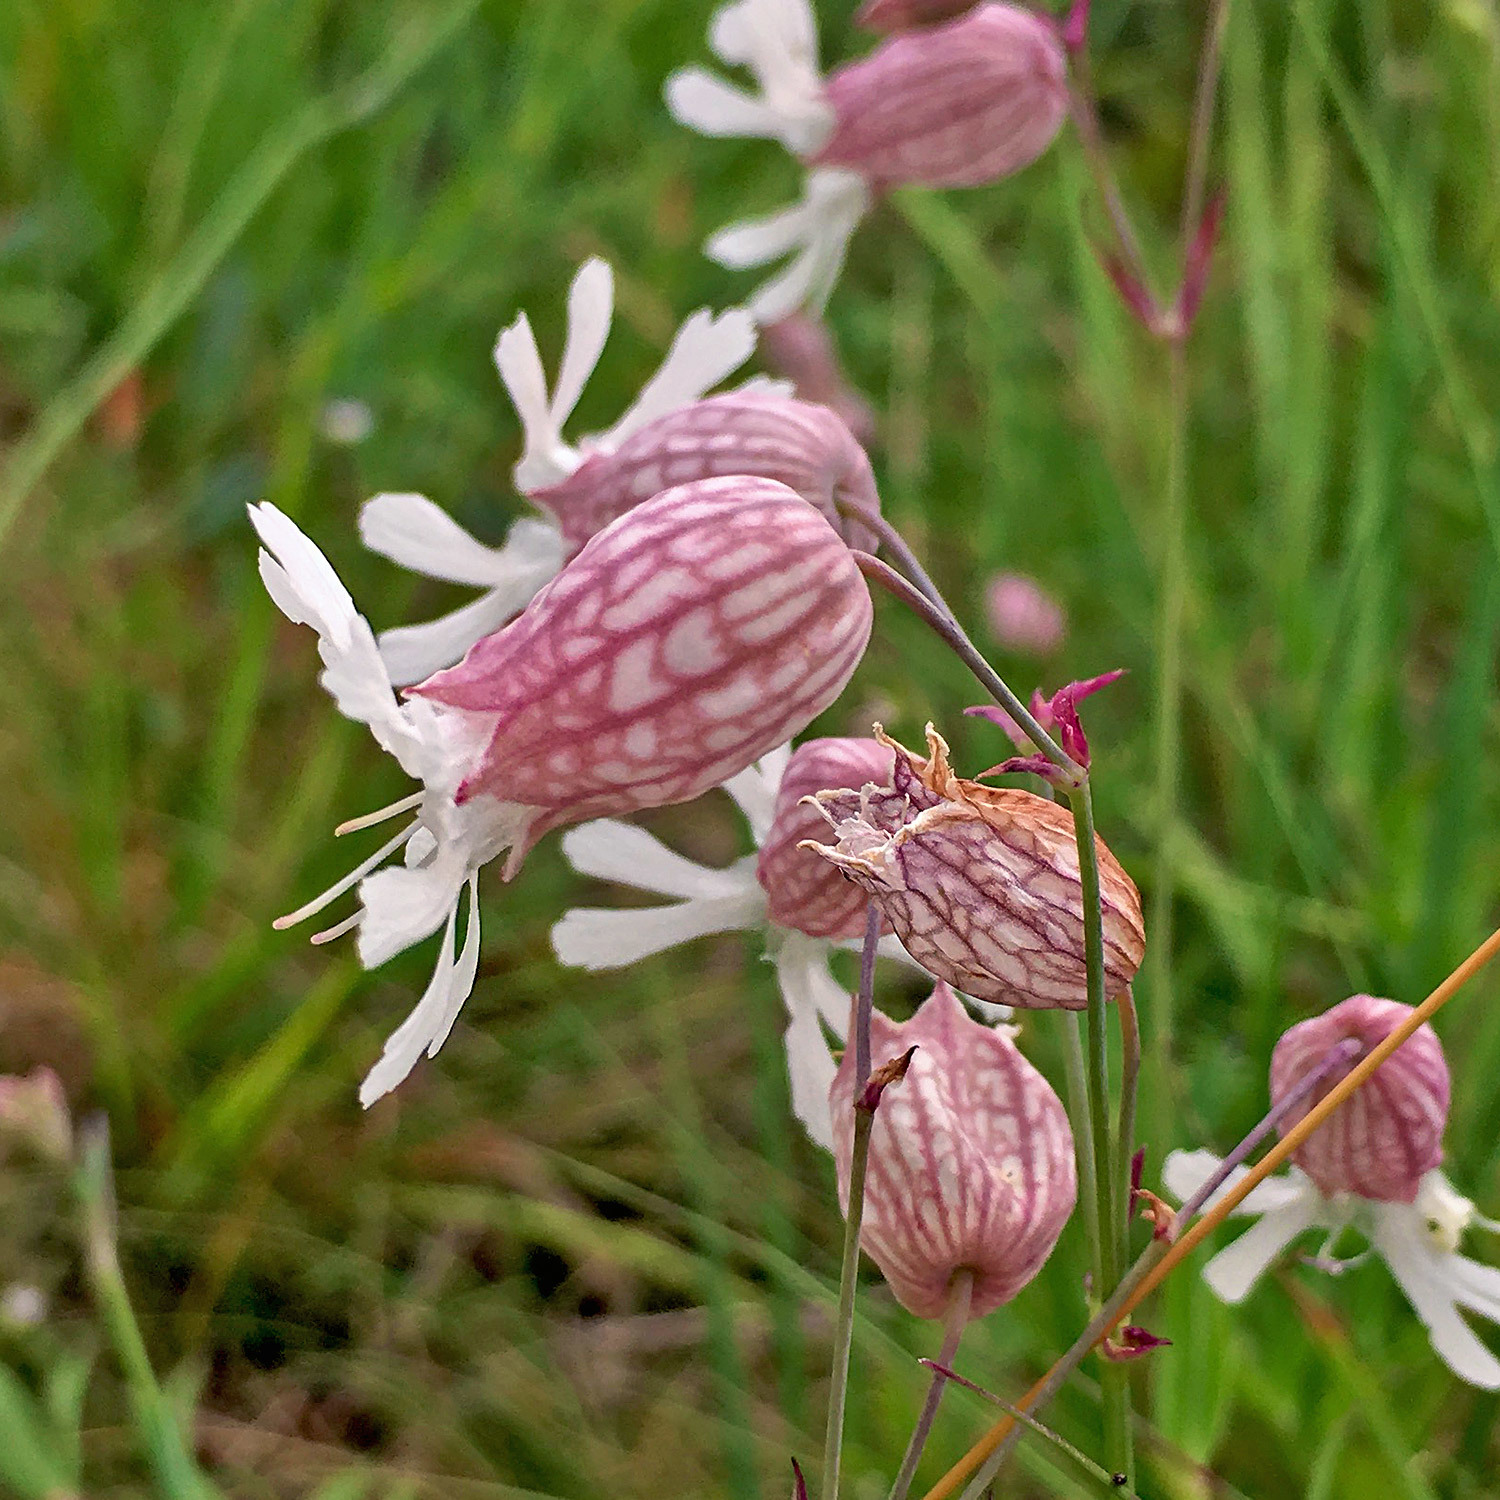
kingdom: Plantae
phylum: Tracheophyta
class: Magnoliopsida
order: Caryophyllales
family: Caryophyllaceae
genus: Silene
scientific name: Silene vulgaris
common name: Bladder campion
